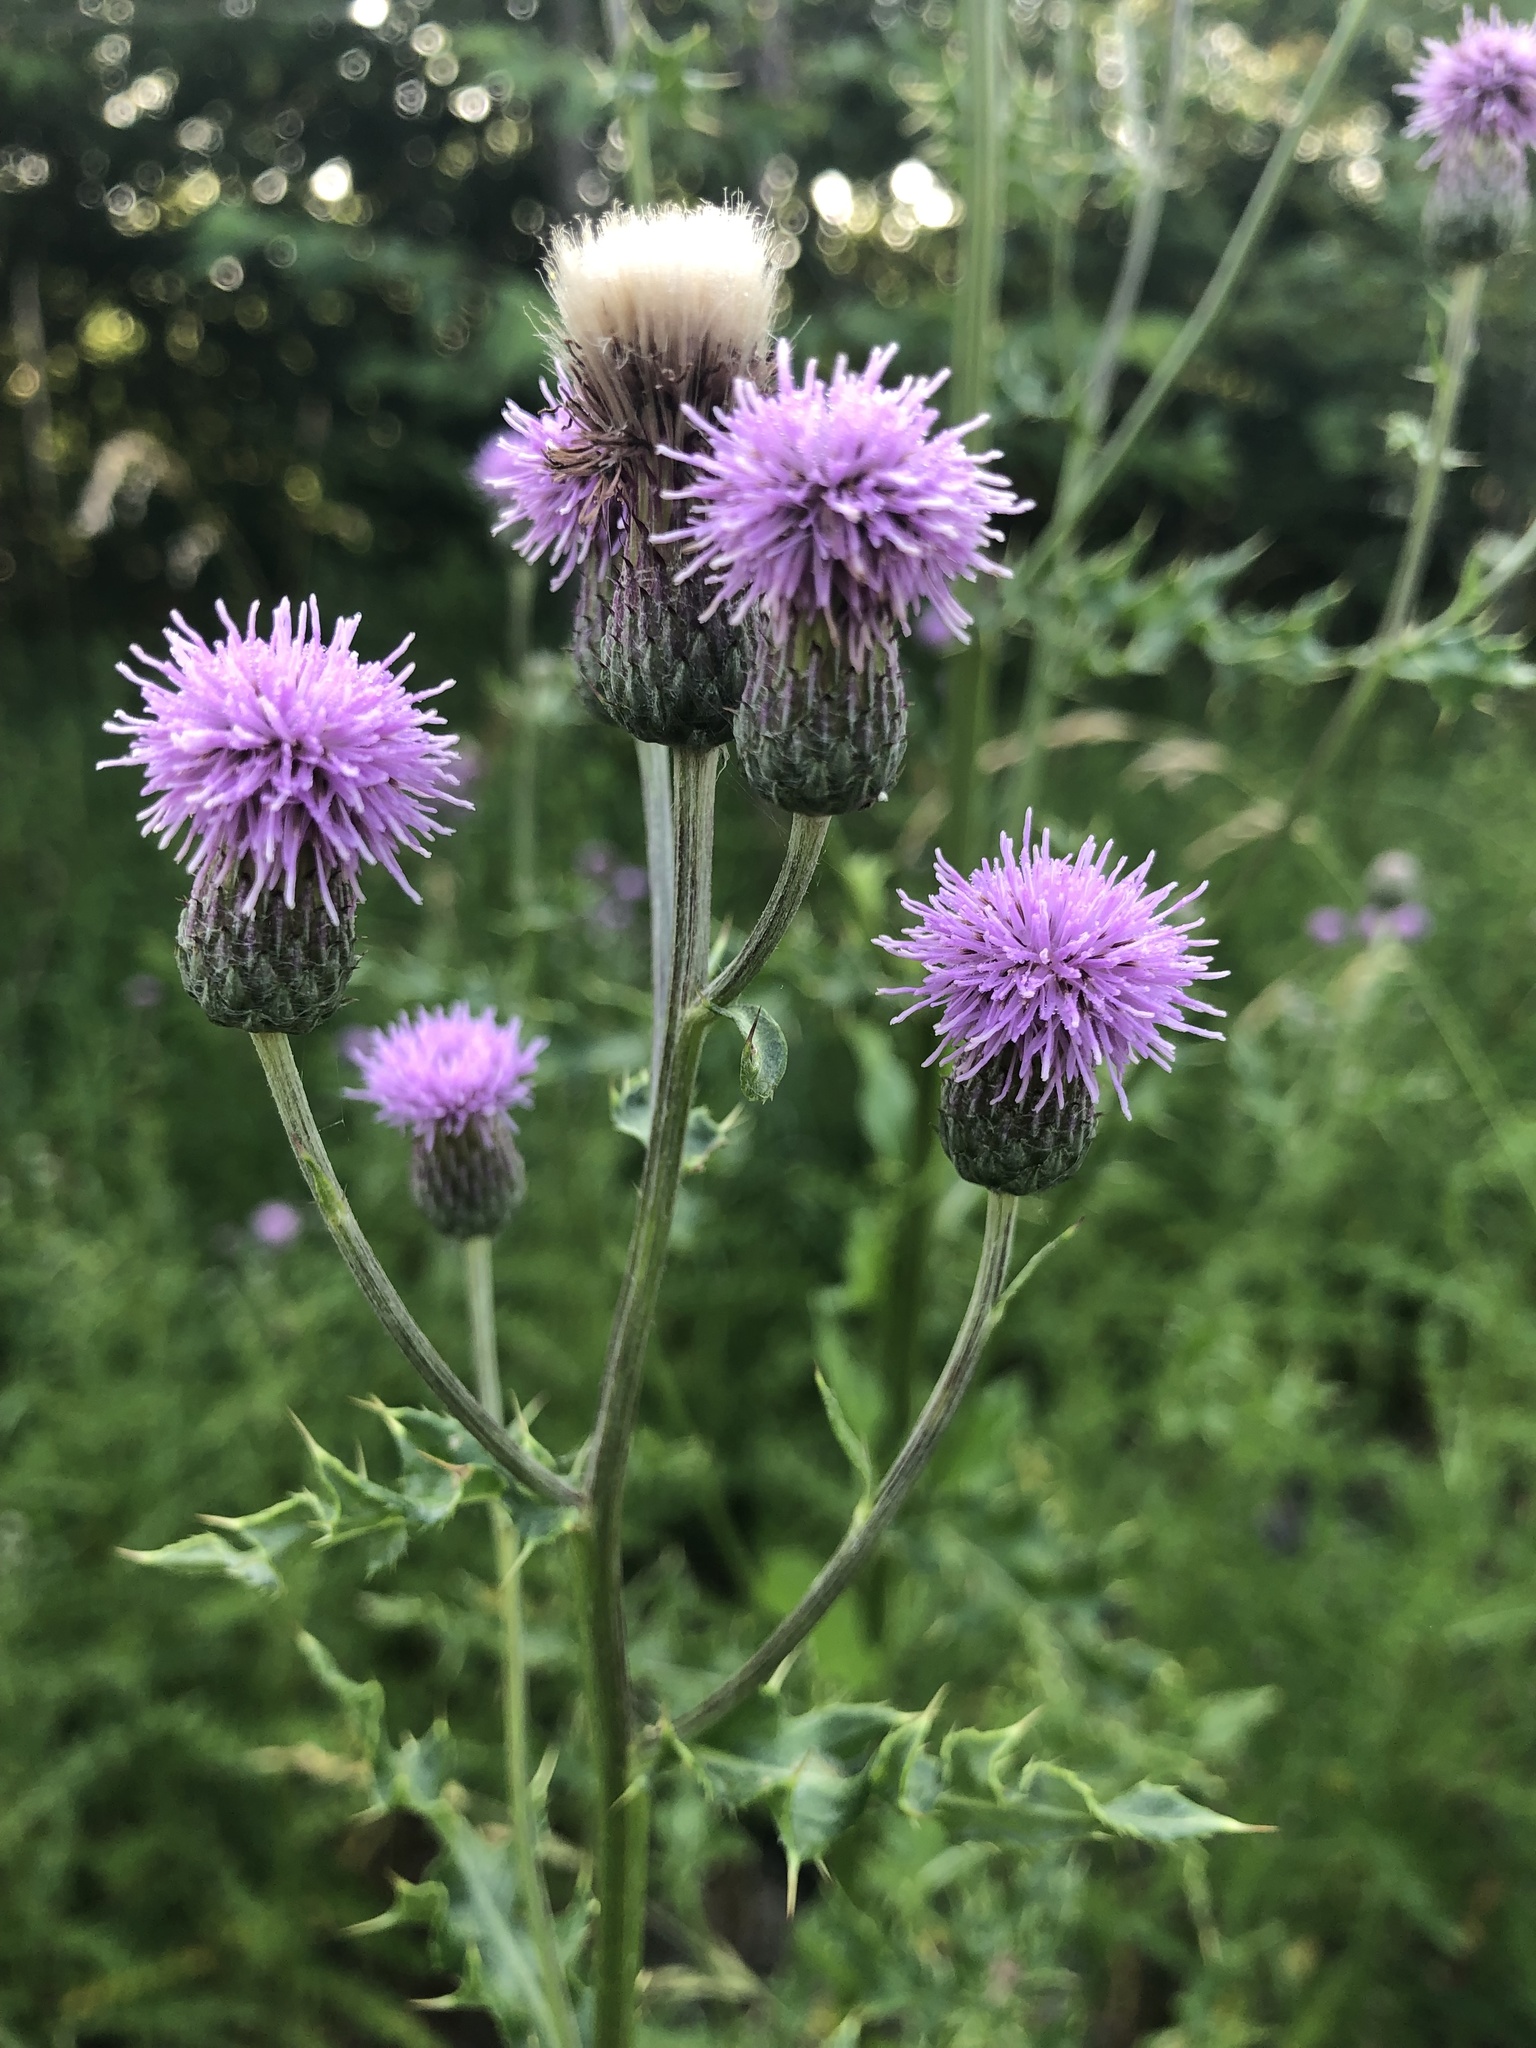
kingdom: Plantae
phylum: Tracheophyta
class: Magnoliopsida
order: Asterales
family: Asteraceae
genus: Cirsium
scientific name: Cirsium arvense
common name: Creeping thistle
